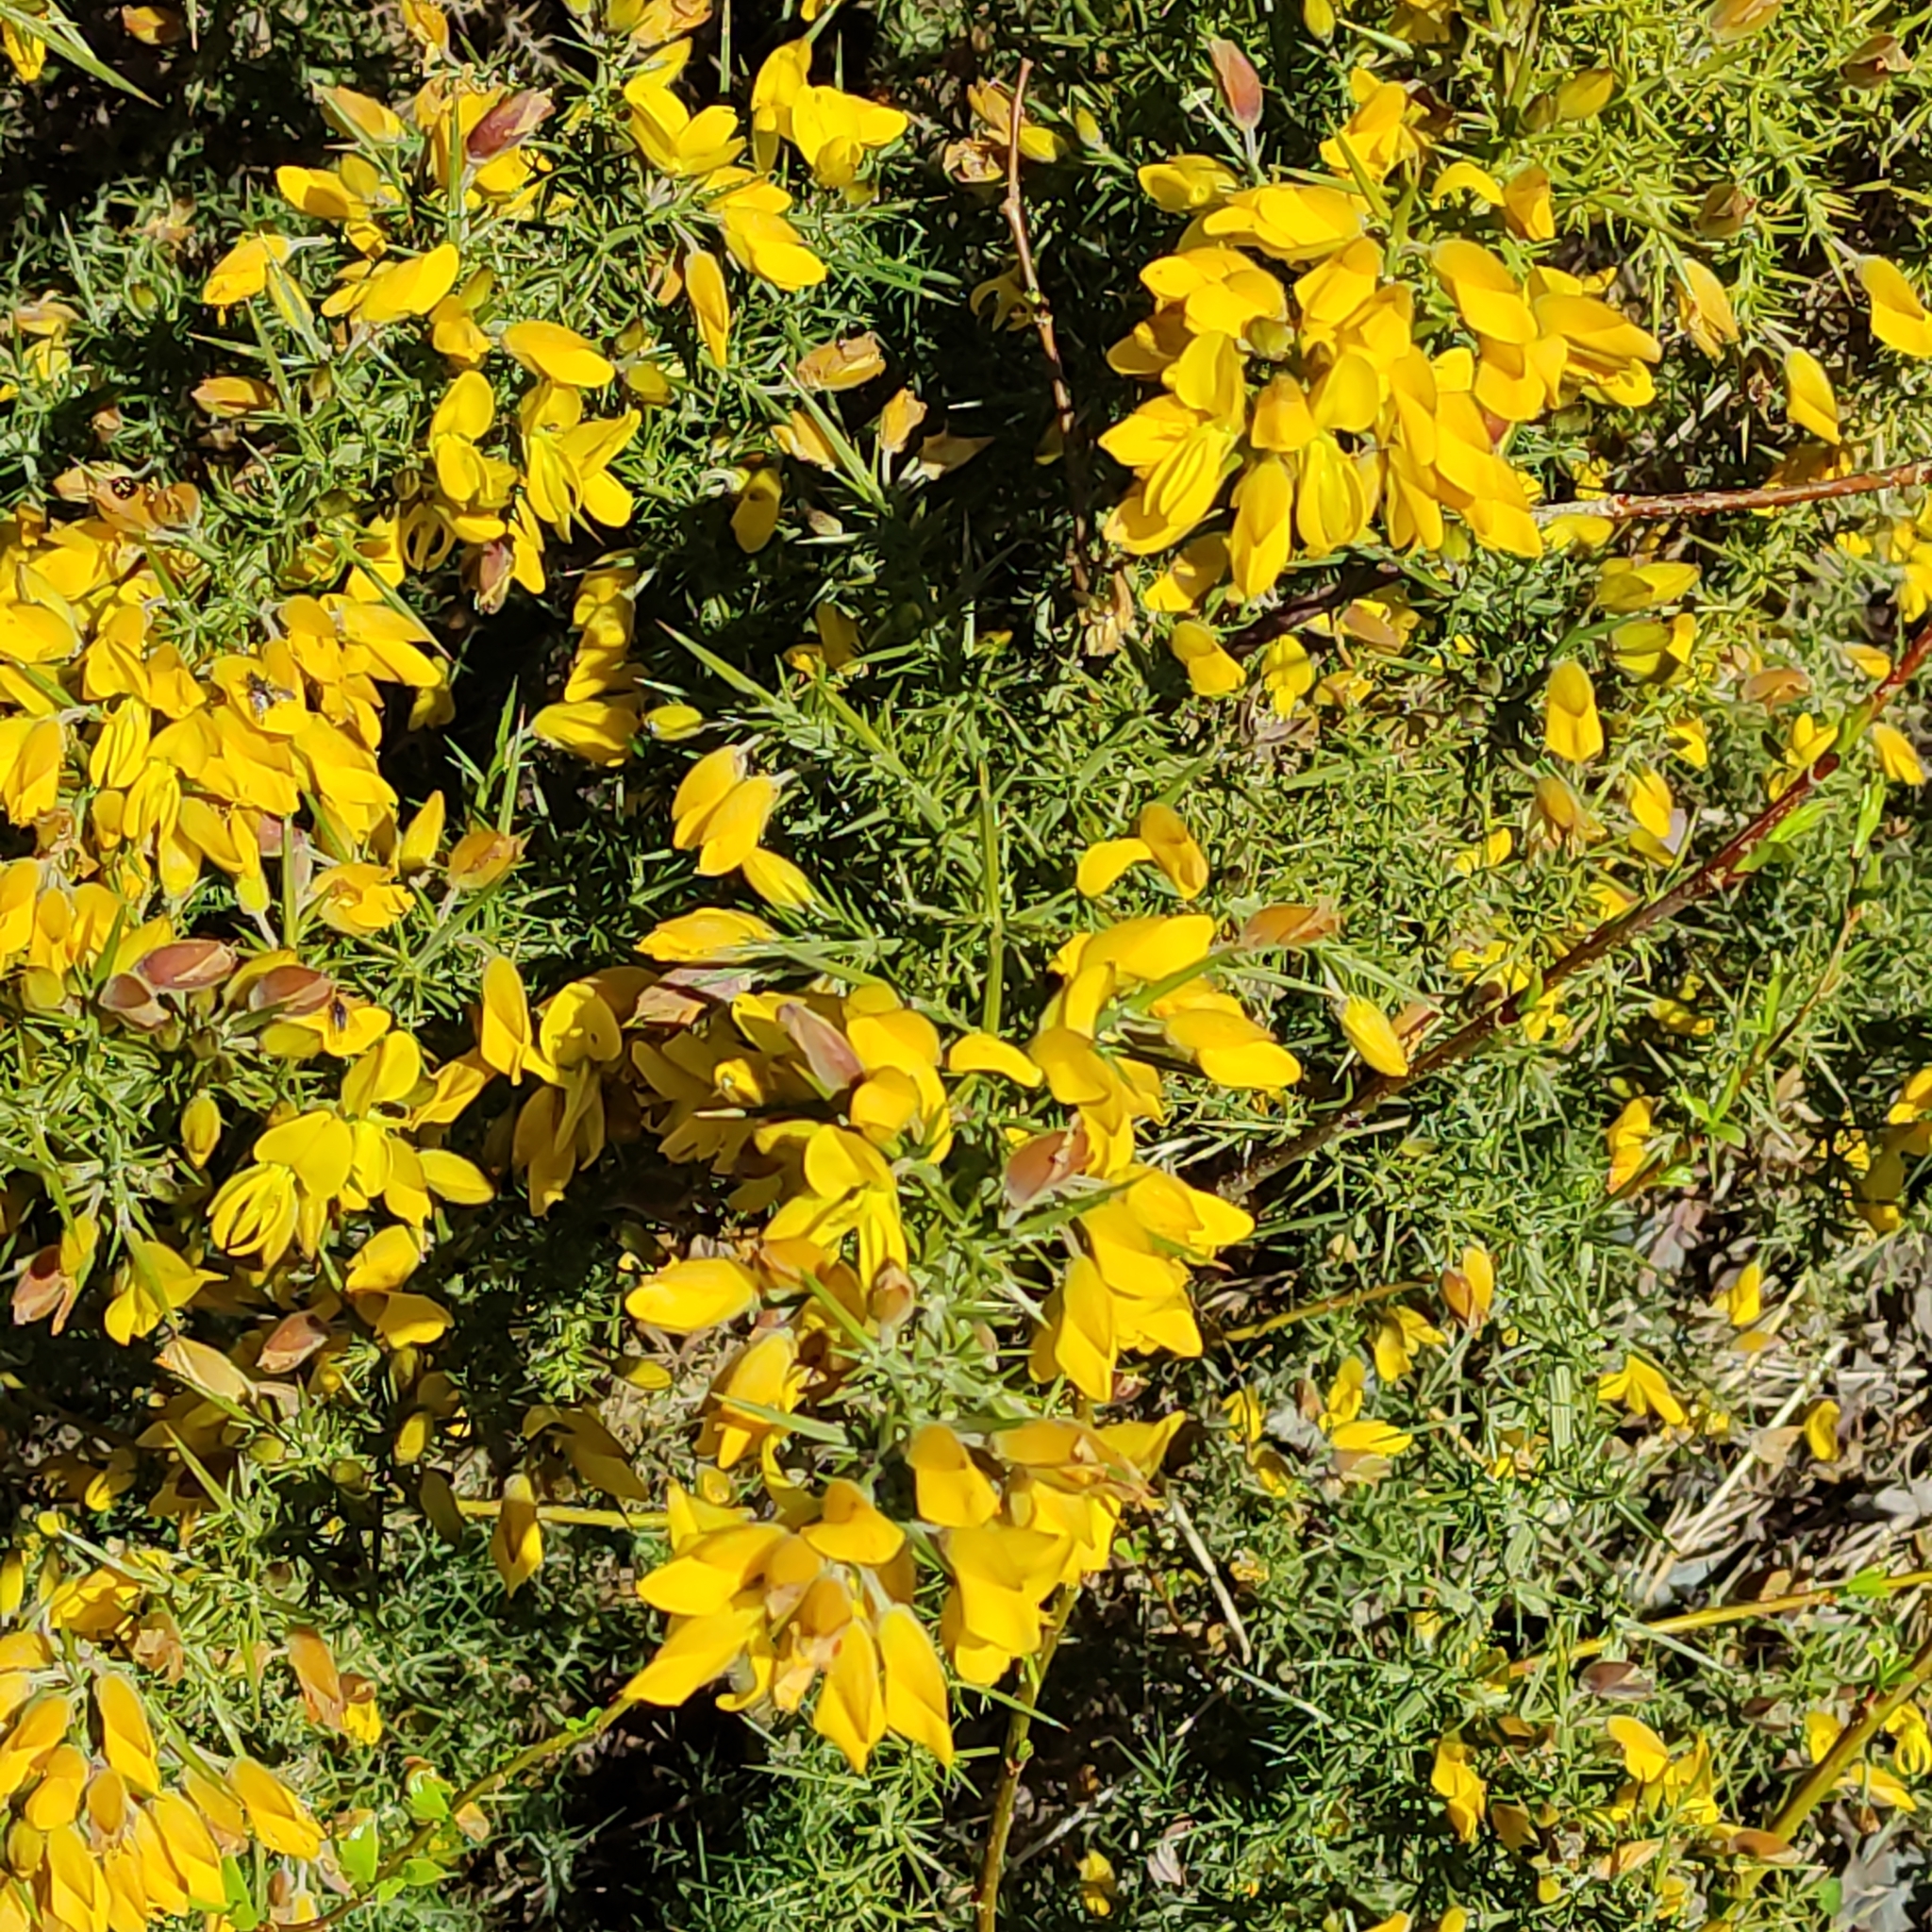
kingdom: Plantae
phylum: Tracheophyta
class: Magnoliopsida
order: Fabales
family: Fabaceae
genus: Ulex
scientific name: Ulex europaeus
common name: Common gorse
